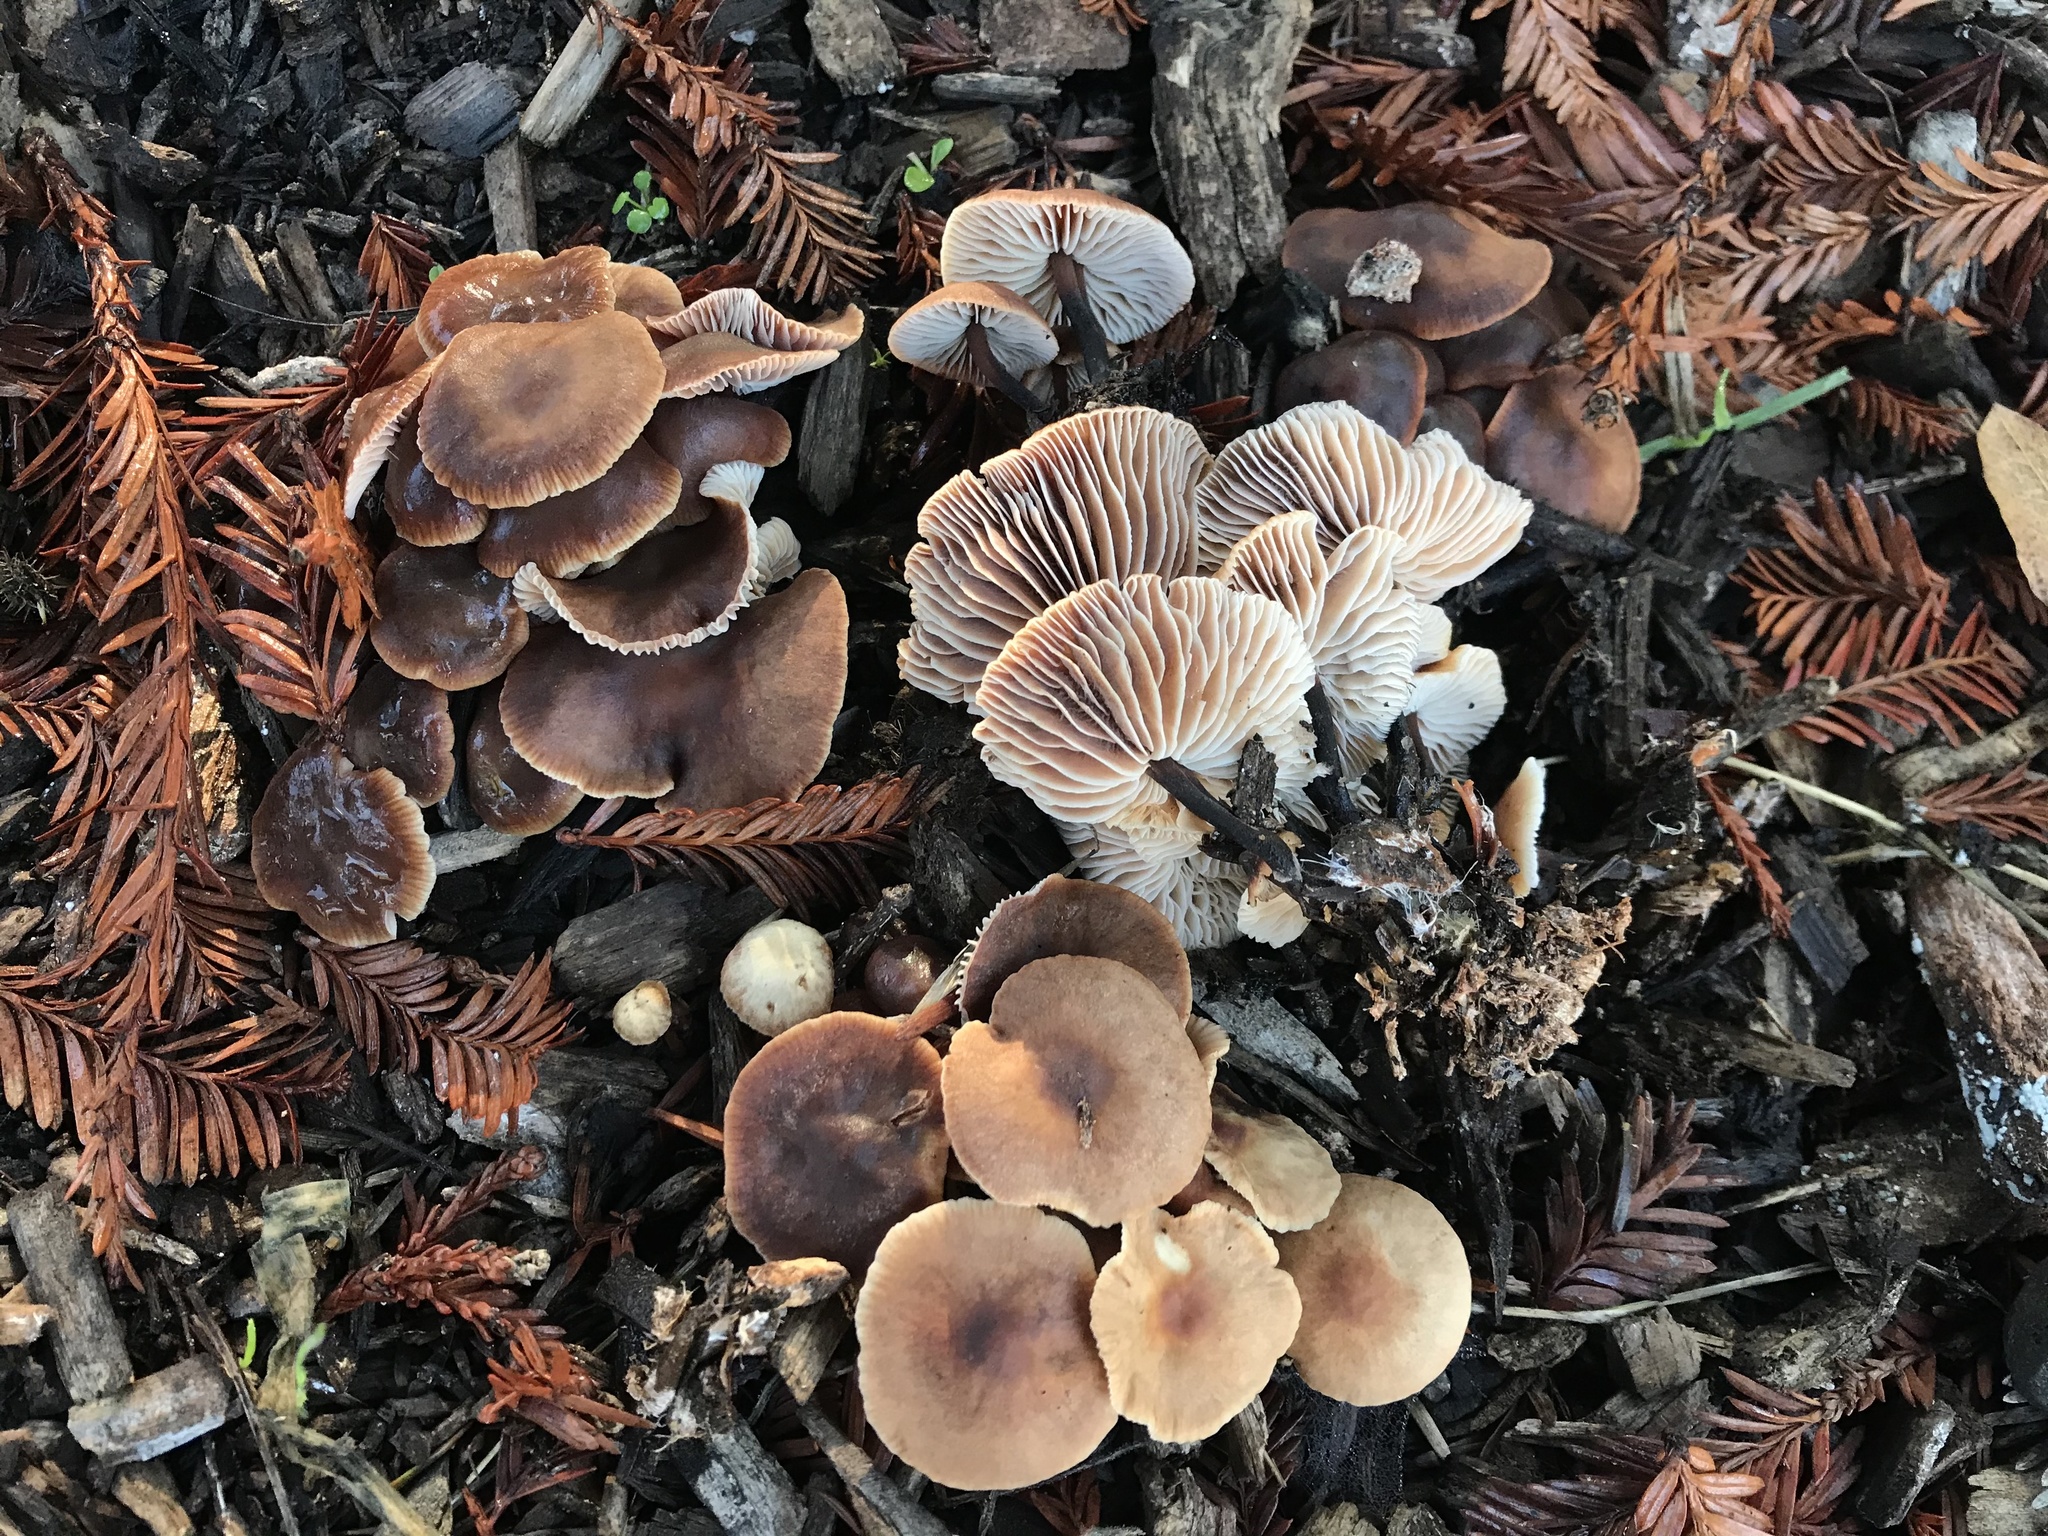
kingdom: Fungi
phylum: Basidiomycota
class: Agaricomycetes
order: Agaricales
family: Omphalotaceae
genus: Gymnopus
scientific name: Gymnopus brassicolens
